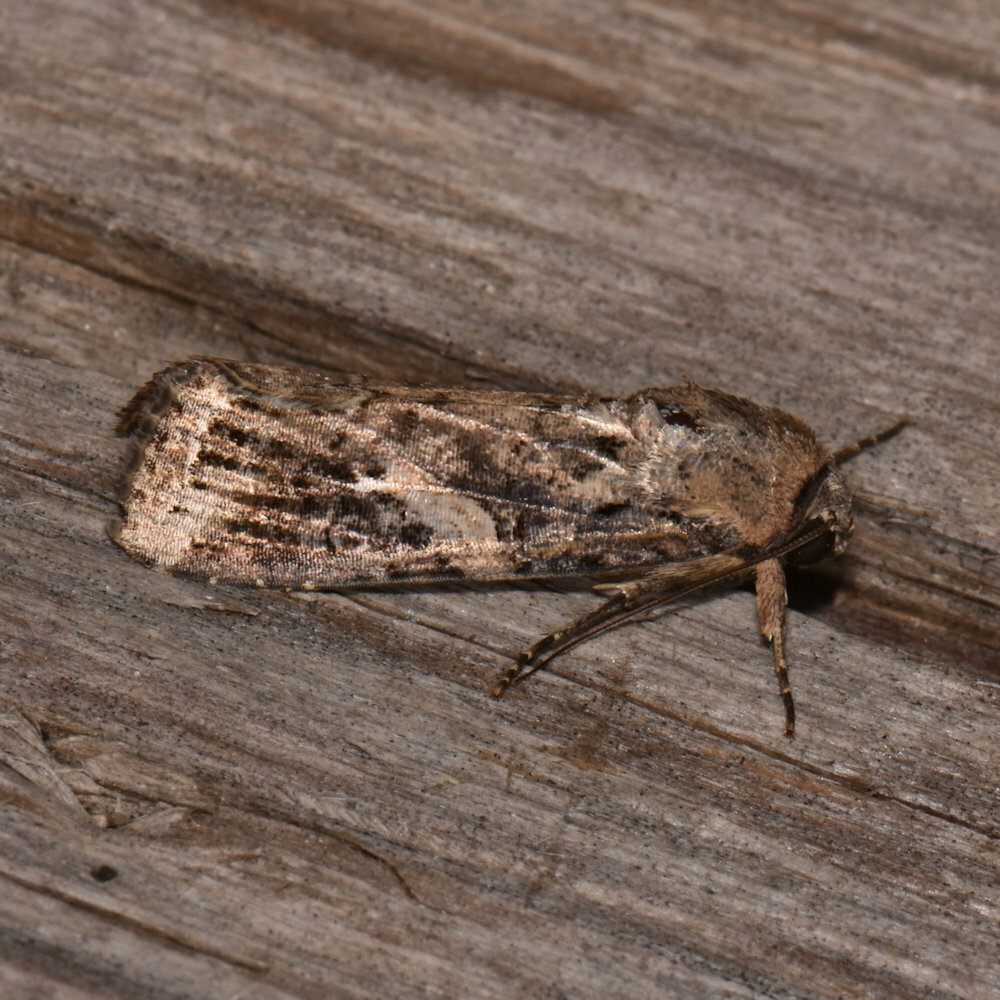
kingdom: Animalia
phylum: Arthropoda
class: Insecta
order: Lepidoptera
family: Noctuidae
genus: Spodoptera
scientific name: Spodoptera frugiperda
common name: Fall armyworm
